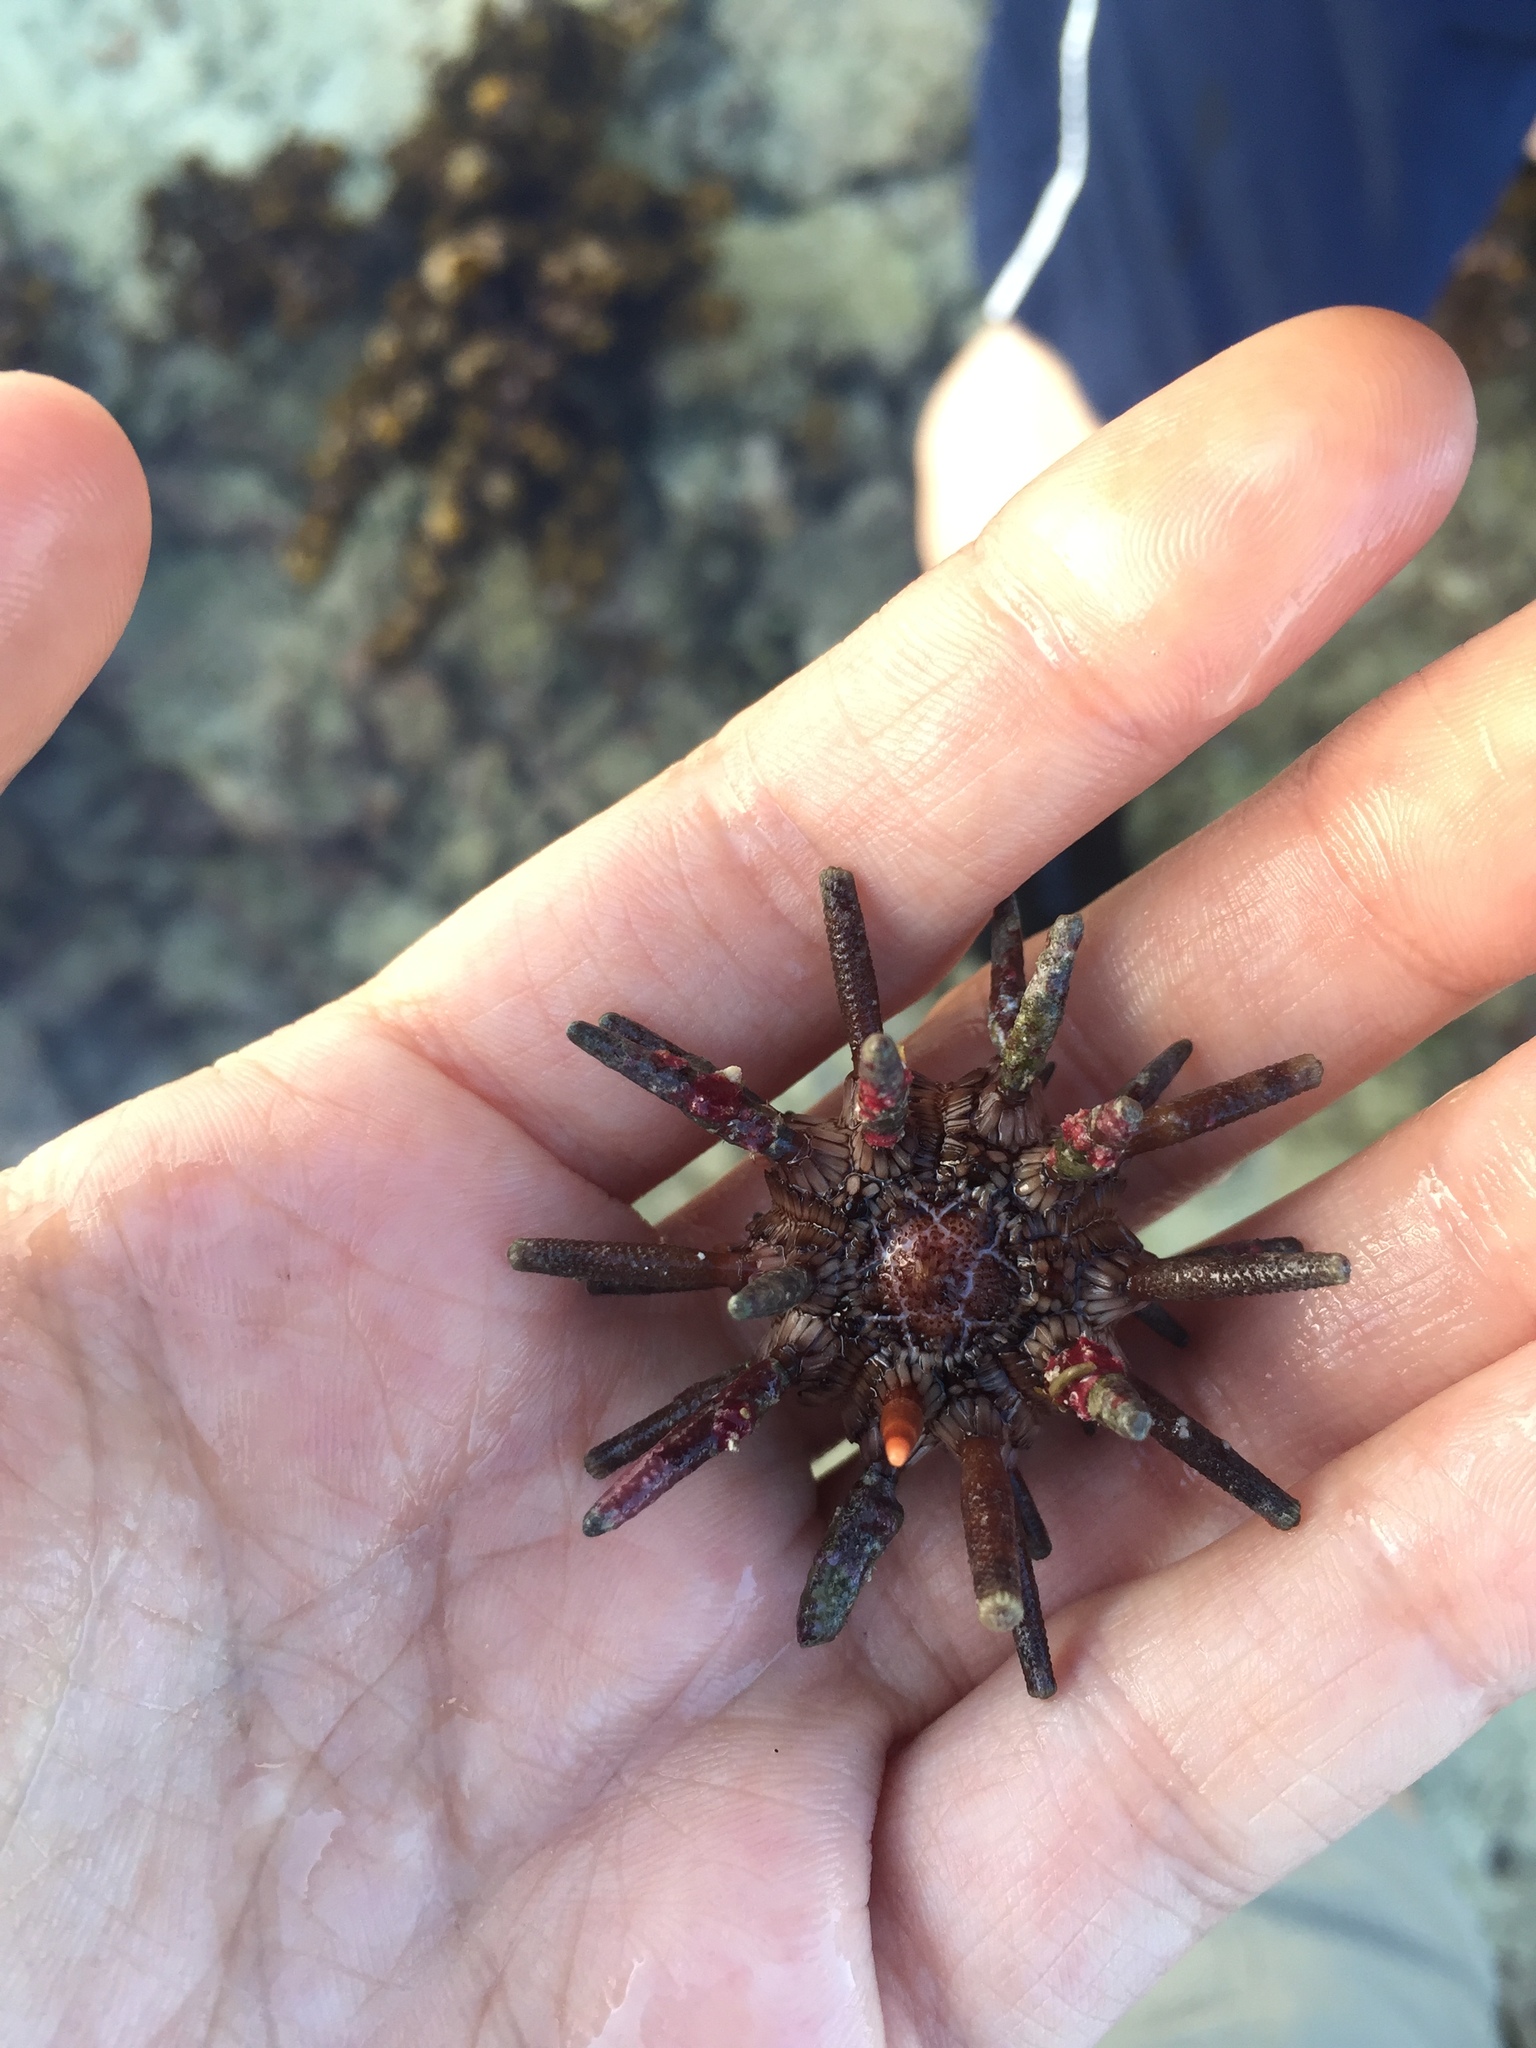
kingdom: Animalia
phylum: Echinodermata
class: Echinoidea
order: Cidaroida
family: Cidaridae
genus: Eucidaris
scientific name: Eucidaris tribuloides
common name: Slate pencil urchin
